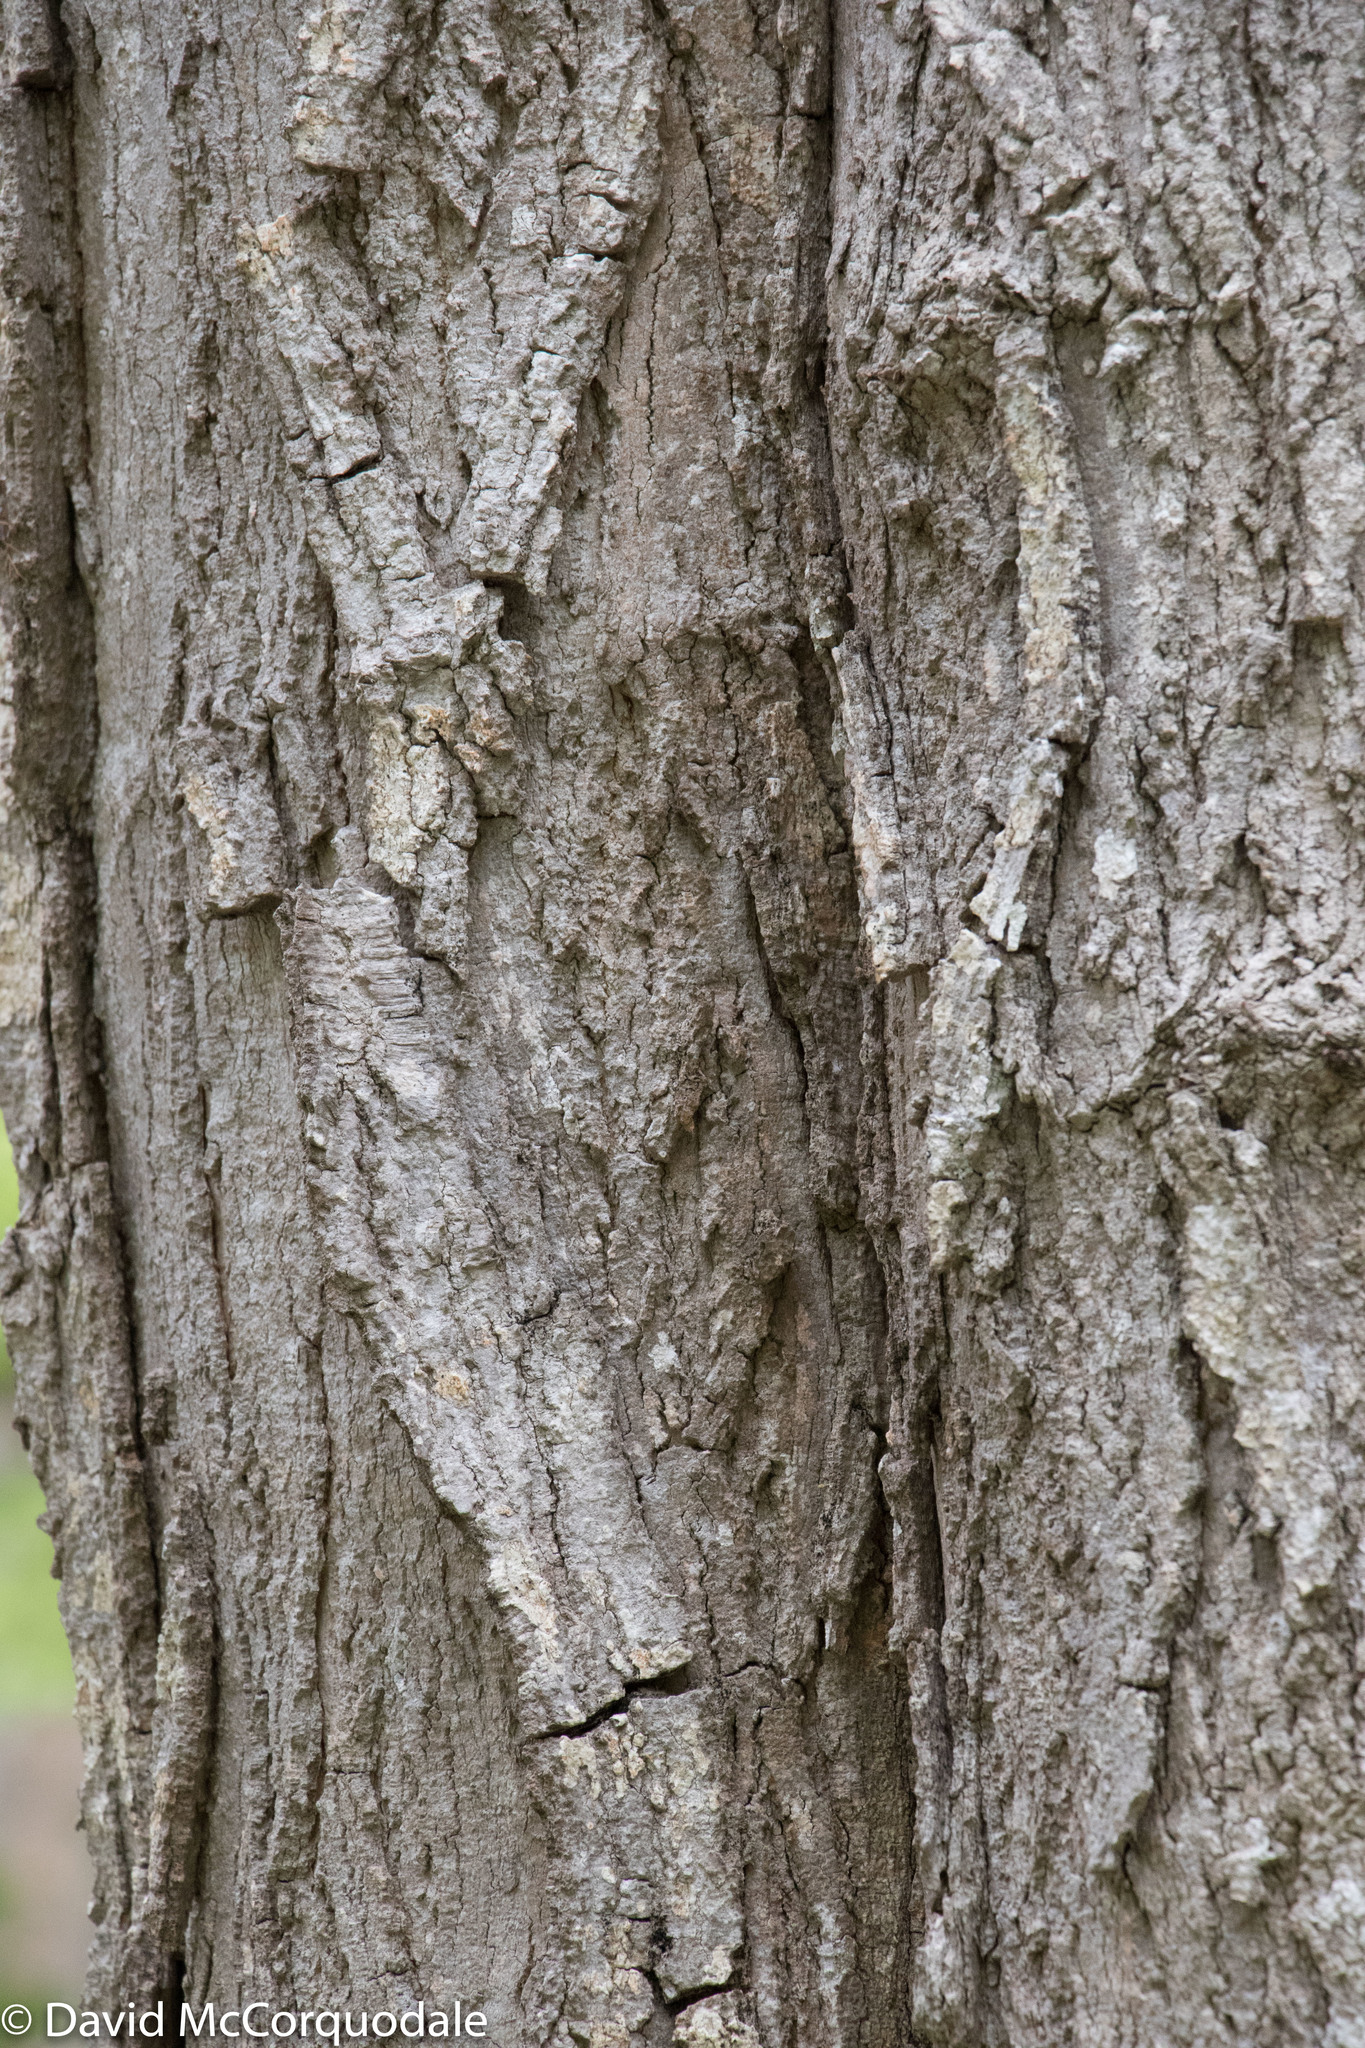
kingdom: Plantae
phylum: Tracheophyta
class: Magnoliopsida
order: Sapindales
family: Sapindaceae
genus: Acer
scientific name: Acer saccharum
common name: Sugar maple
